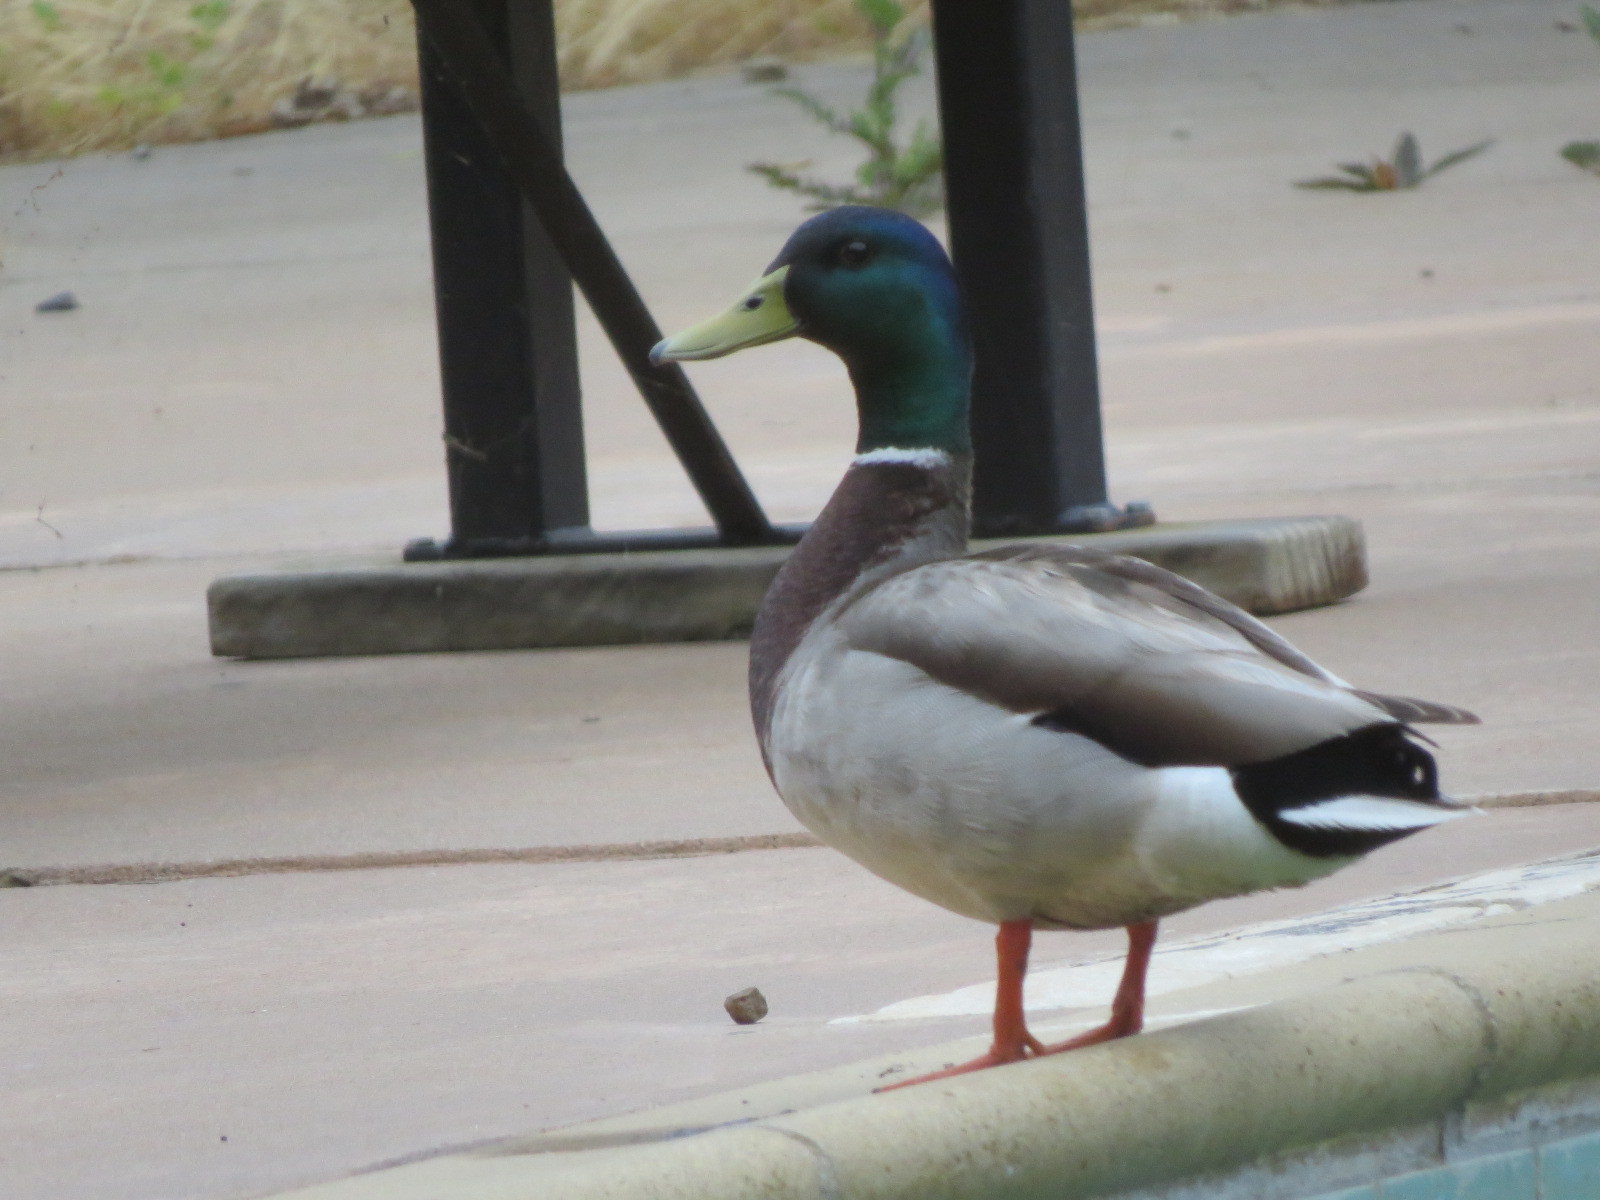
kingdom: Animalia
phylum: Chordata
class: Aves
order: Anseriformes
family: Anatidae
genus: Anas
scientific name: Anas platyrhynchos
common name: Mallard
